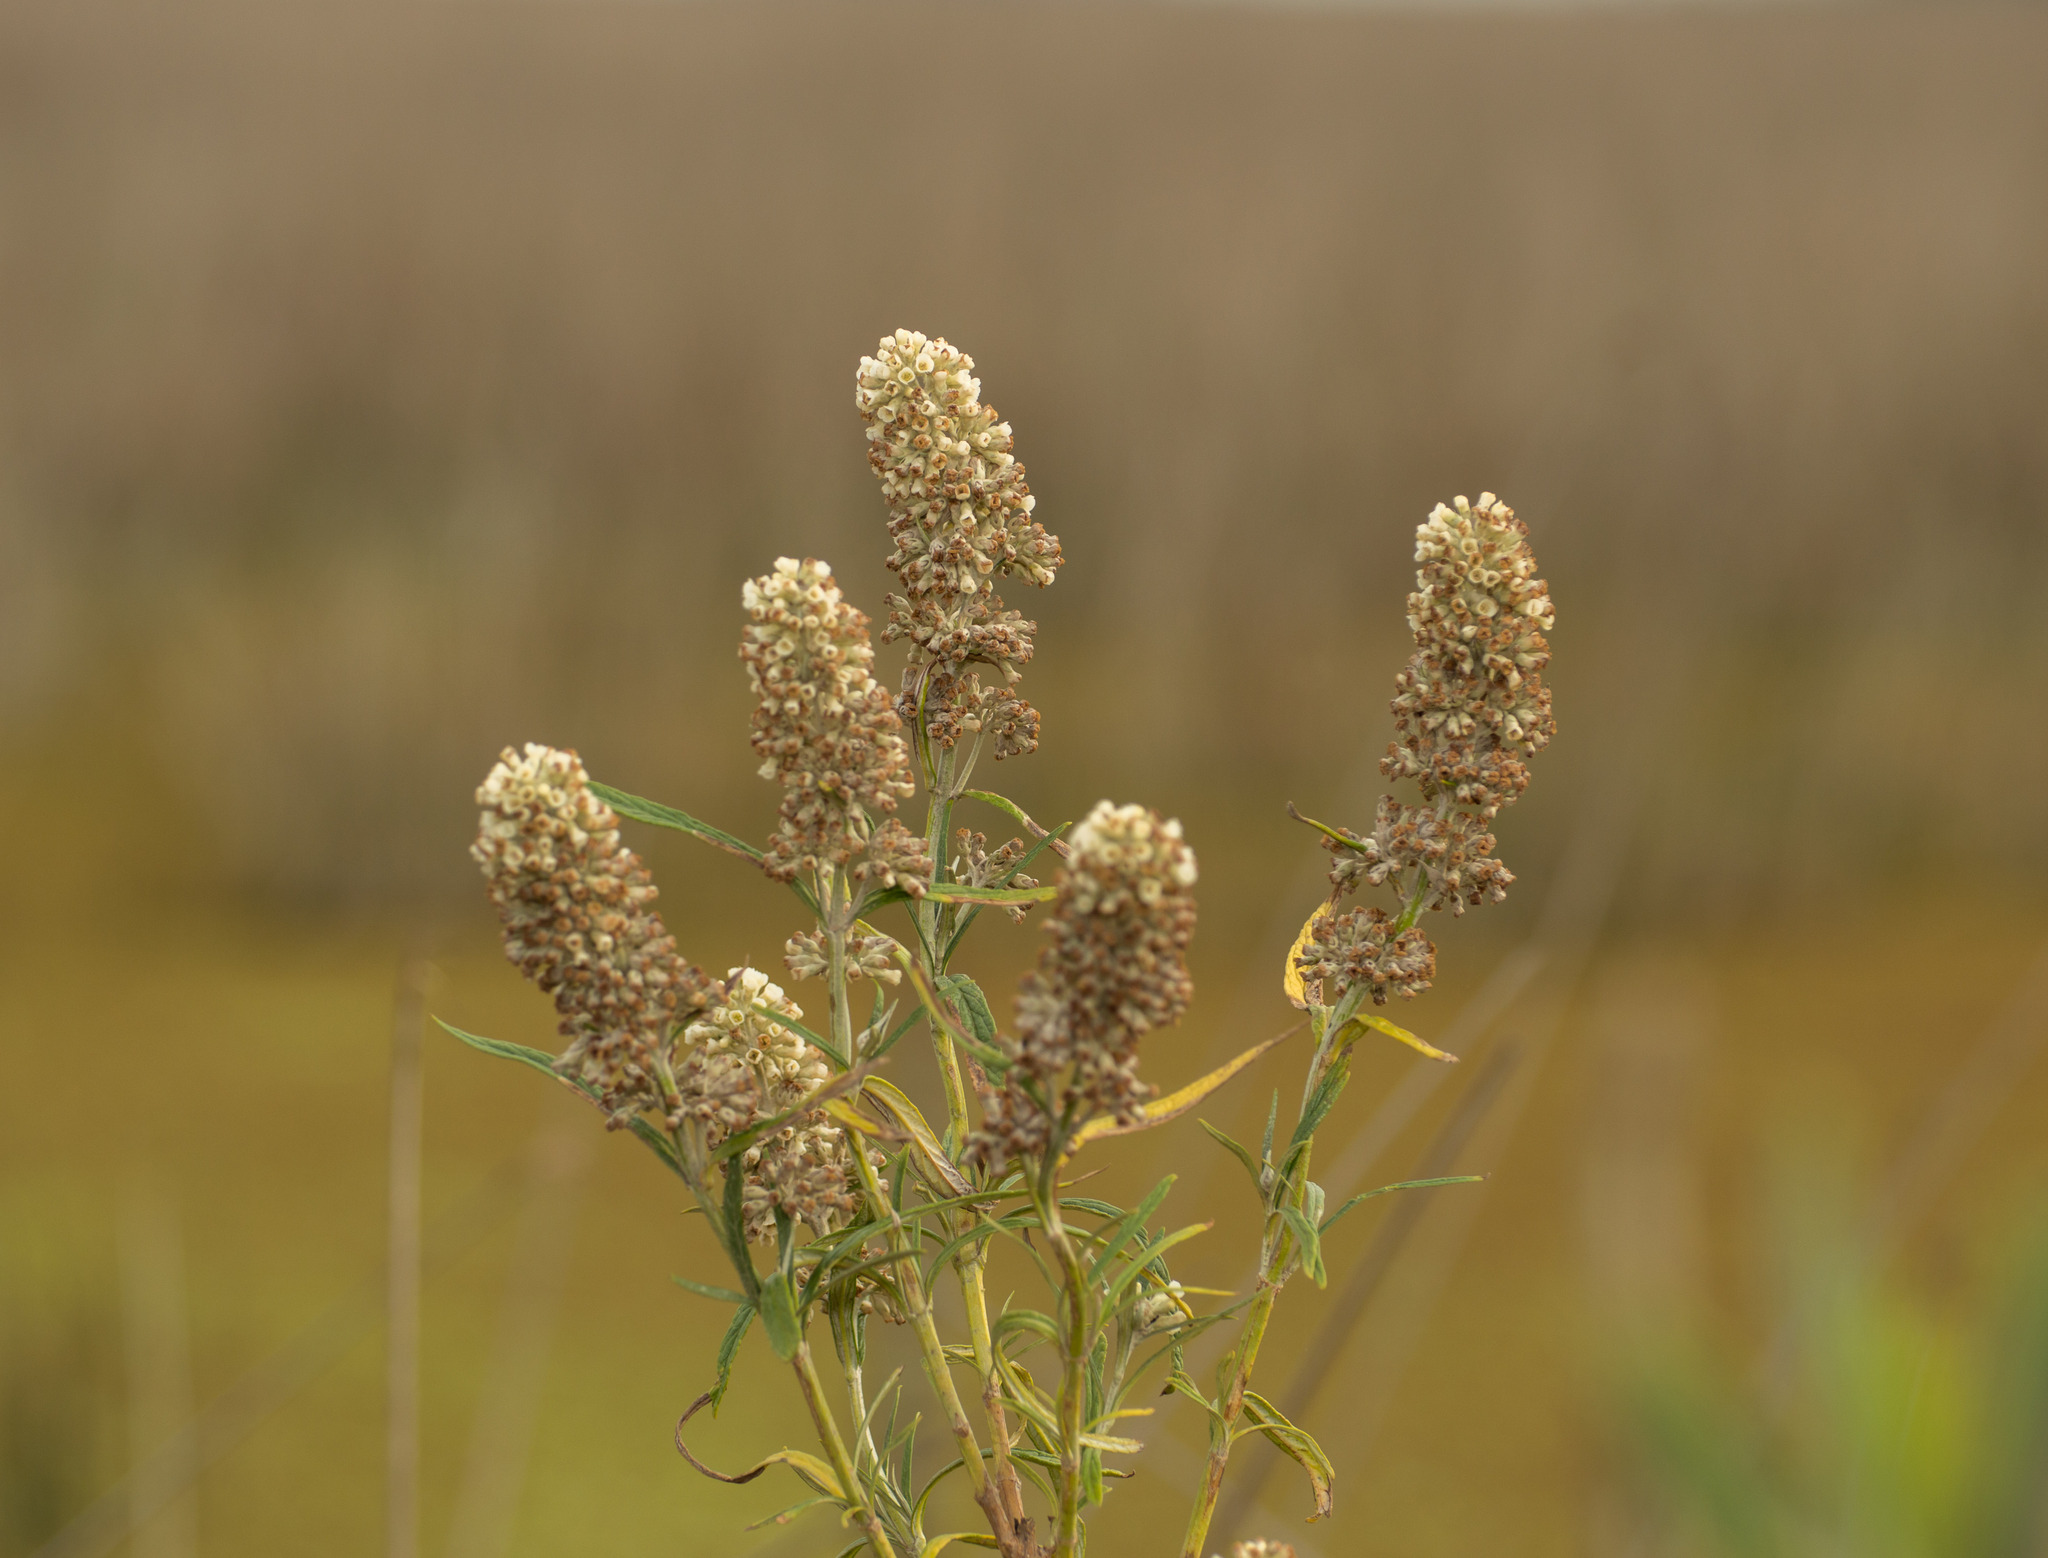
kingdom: Plantae
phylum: Tracheophyta
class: Magnoliopsida
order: Lamiales
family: Scrophulariaceae
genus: Buddleja
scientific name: Buddleja thyrsoides
